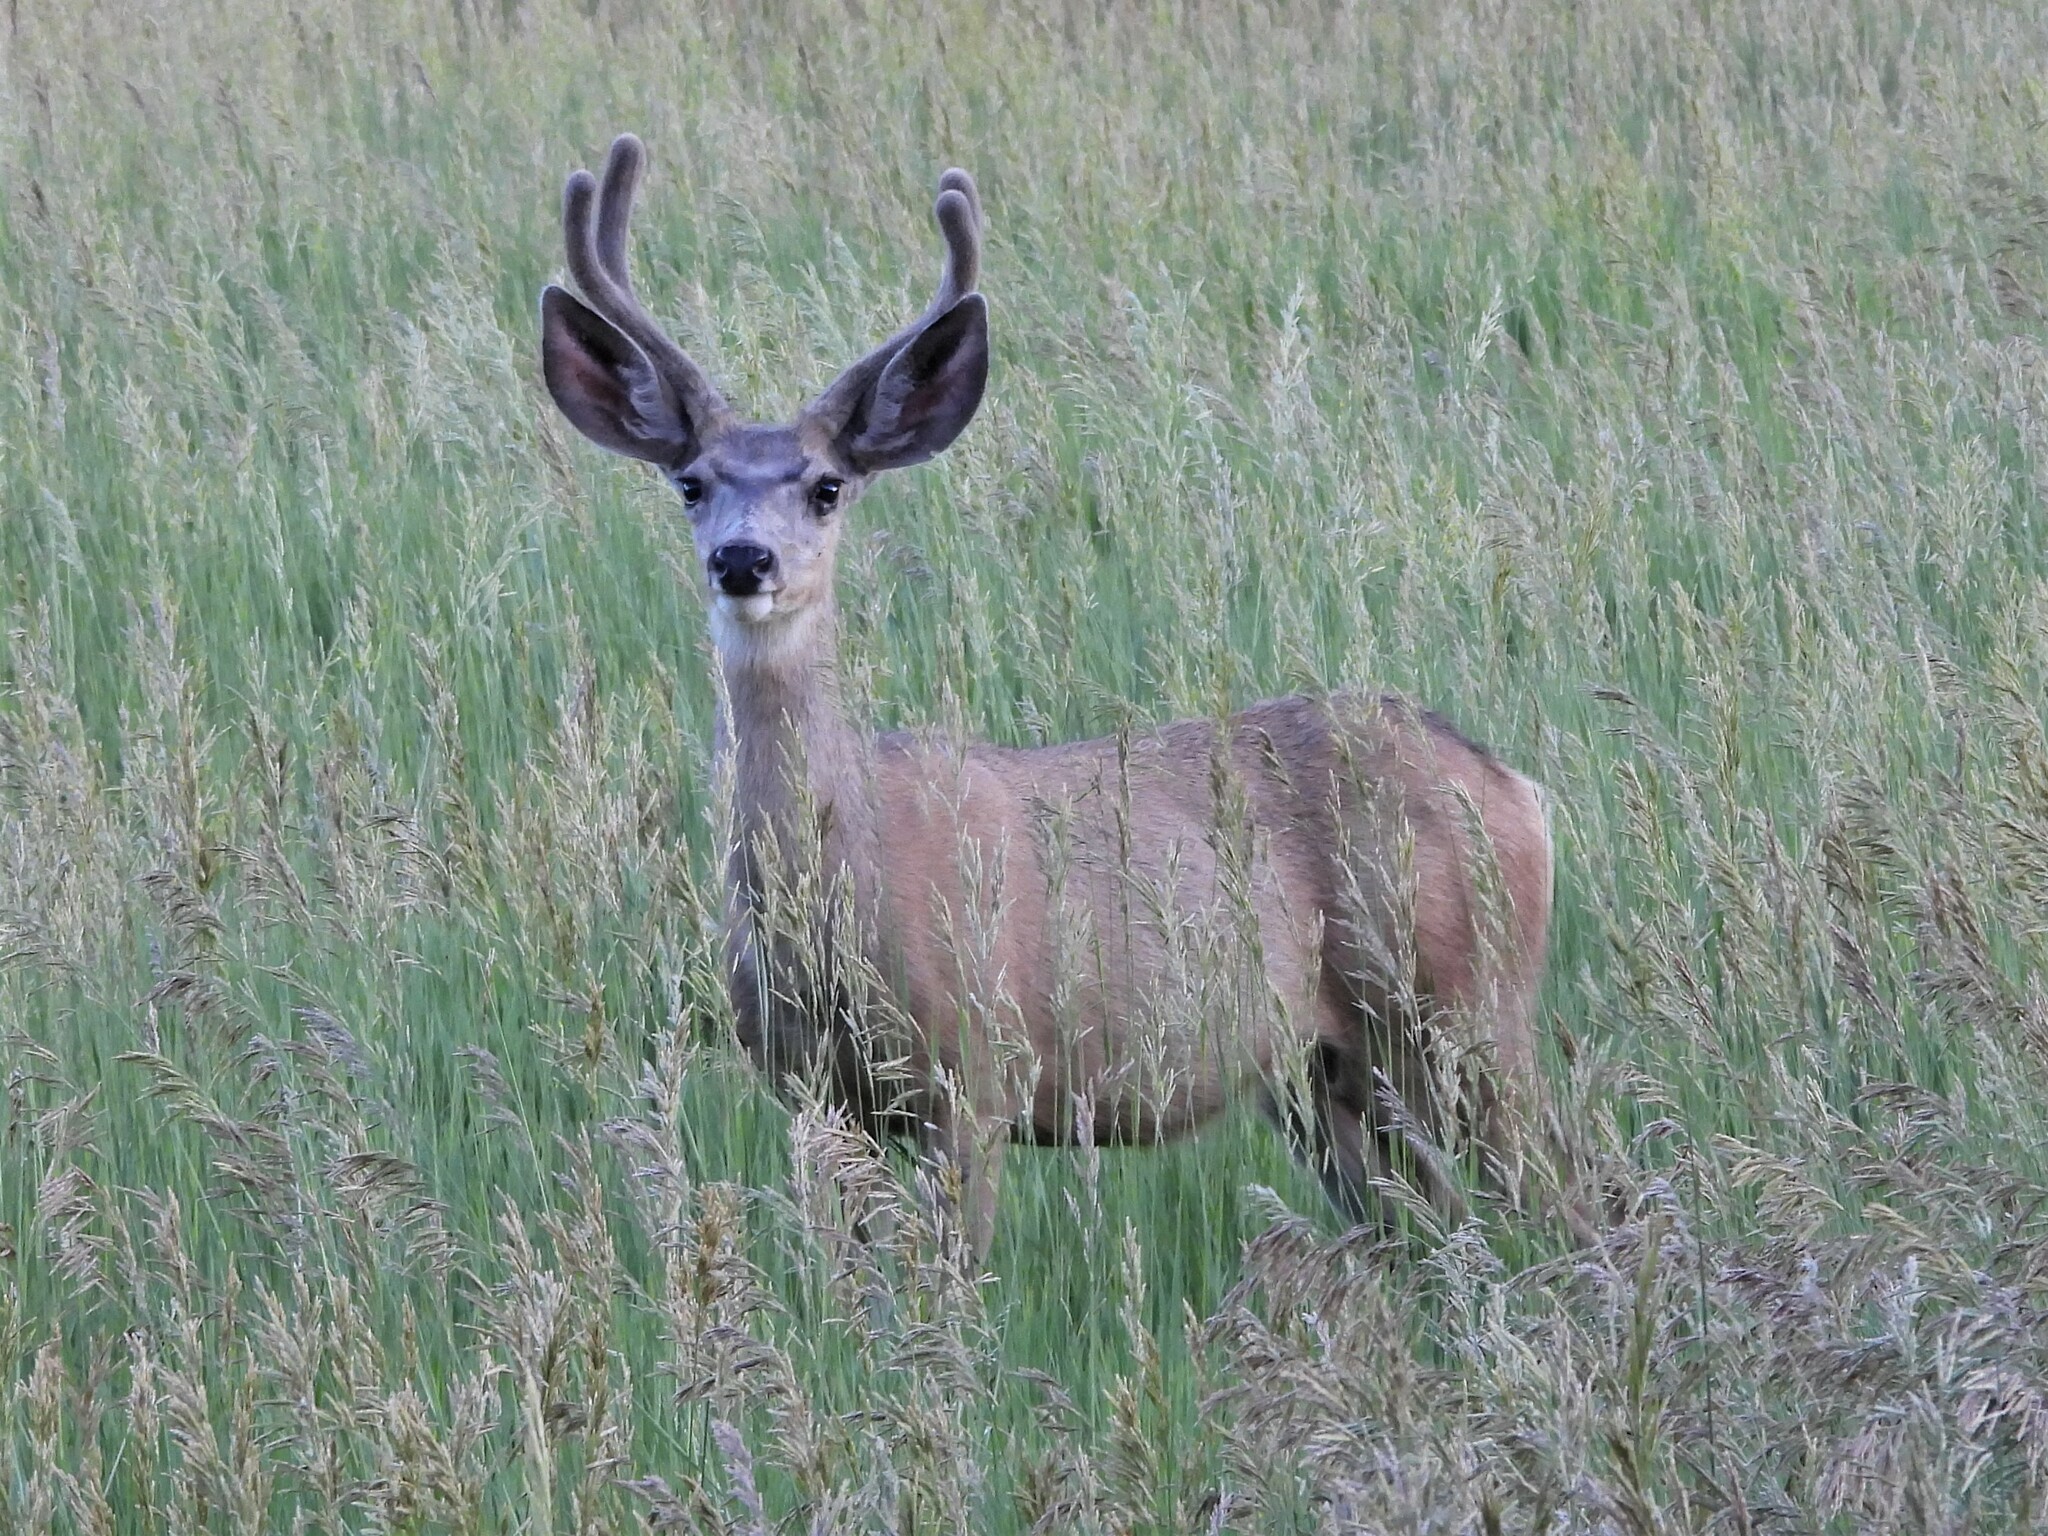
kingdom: Animalia
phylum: Chordata
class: Mammalia
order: Artiodactyla
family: Cervidae
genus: Odocoileus
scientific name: Odocoileus hemionus
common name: Mule deer
